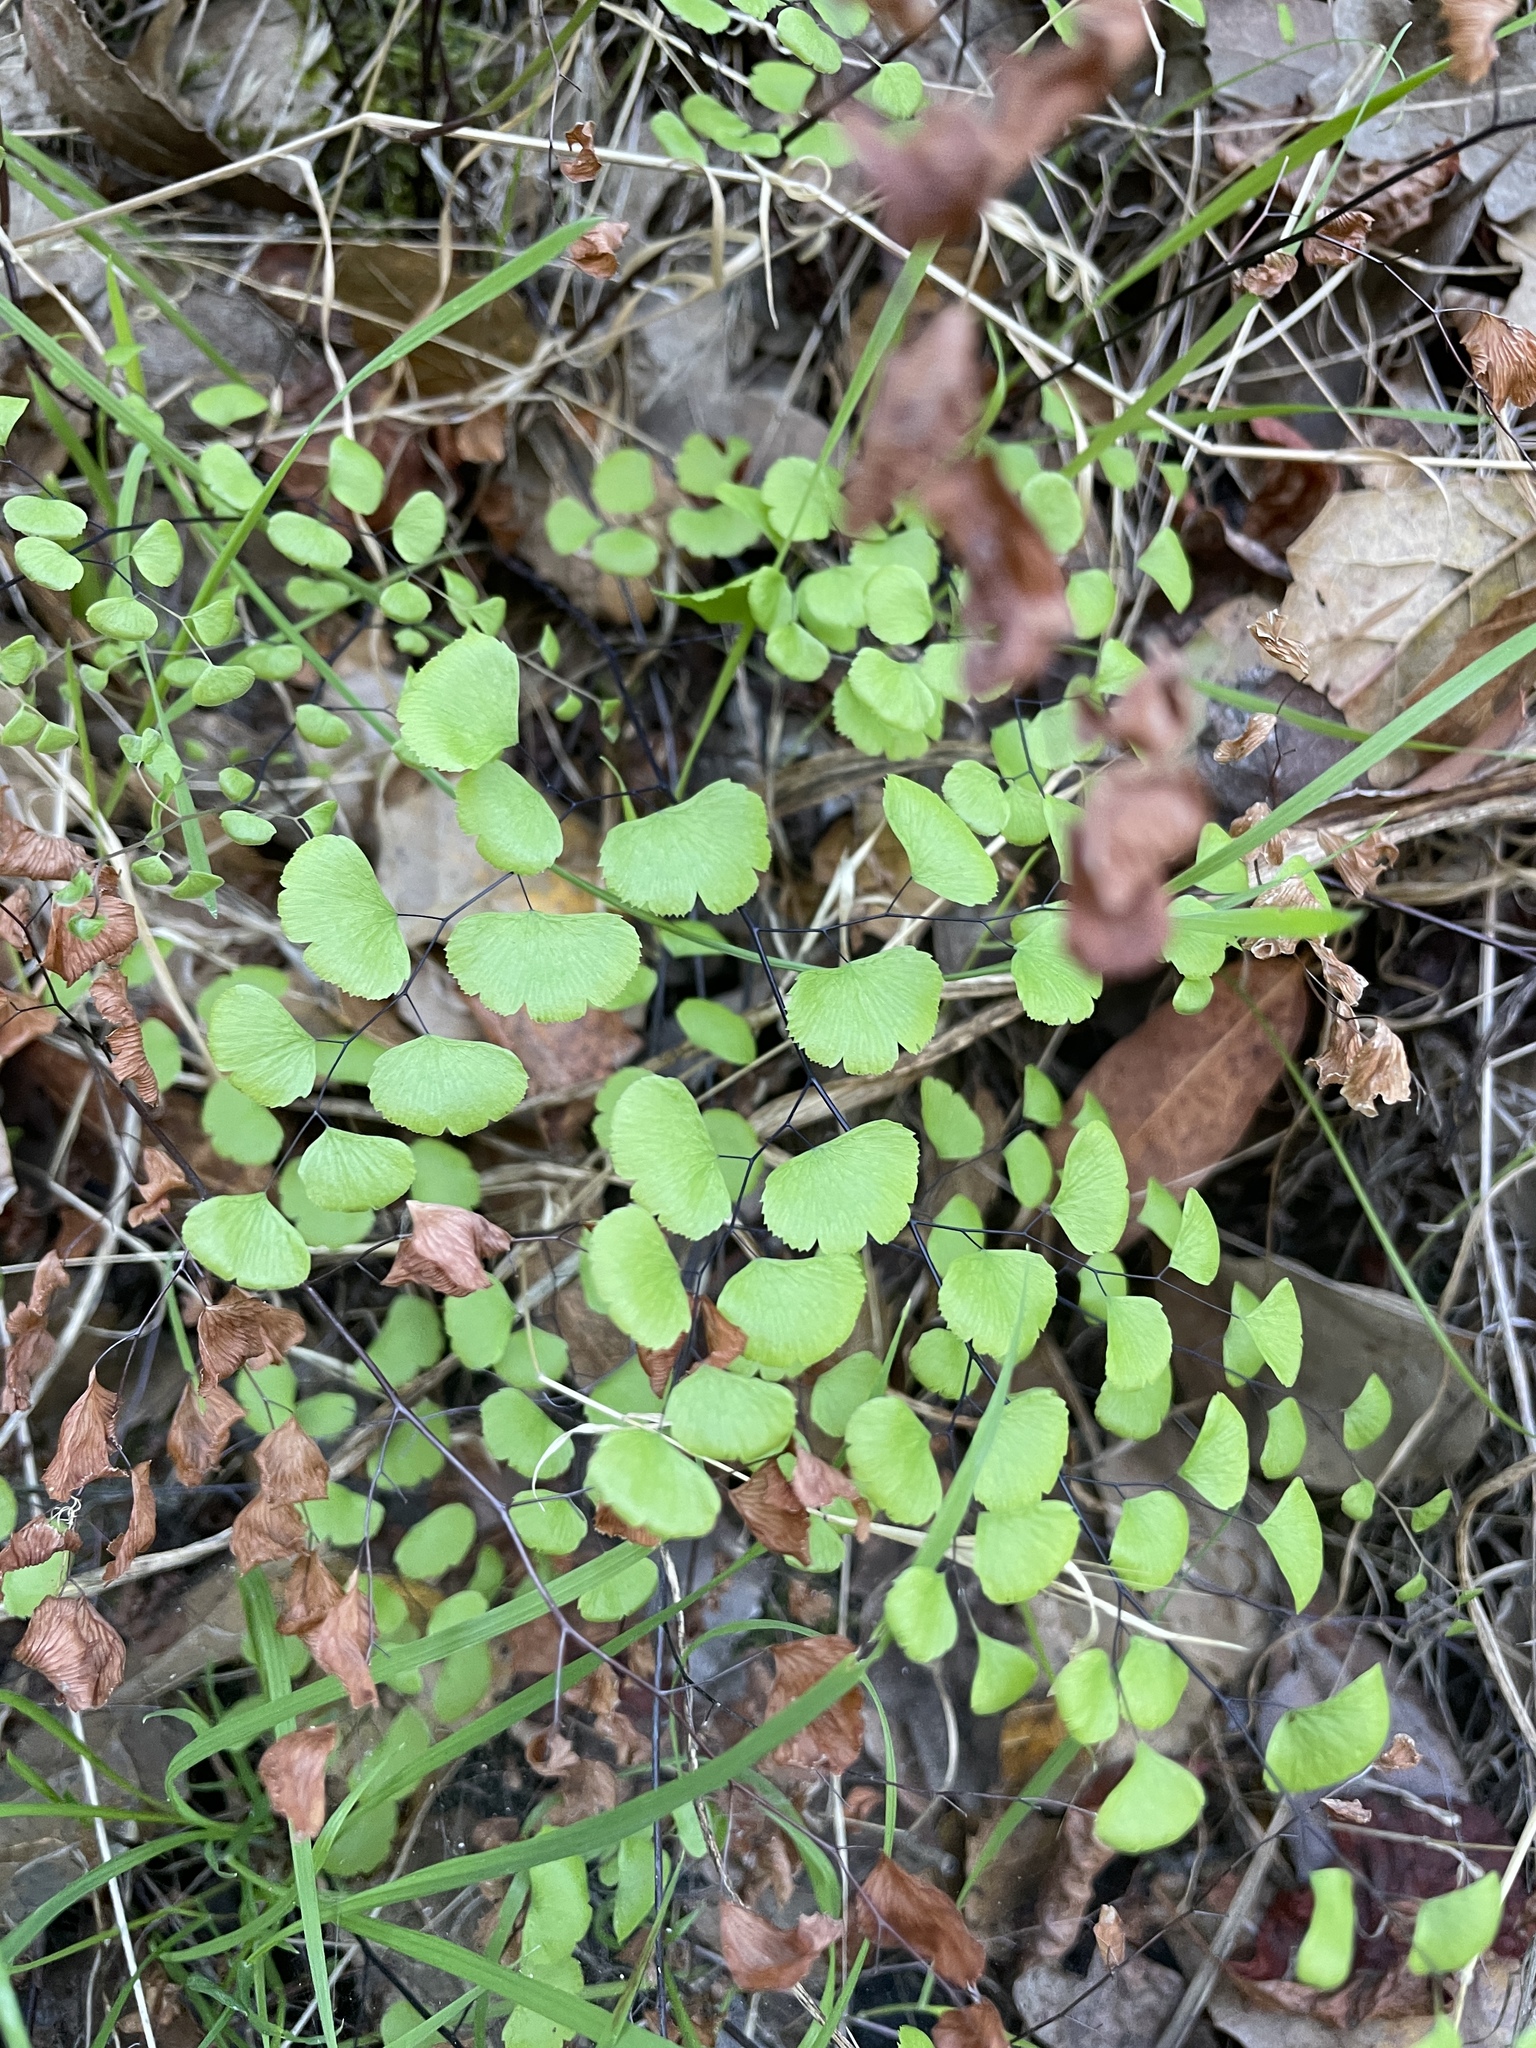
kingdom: Plantae
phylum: Tracheophyta
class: Polypodiopsida
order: Polypodiales
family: Pteridaceae
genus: Adiantum
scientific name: Adiantum jordanii
